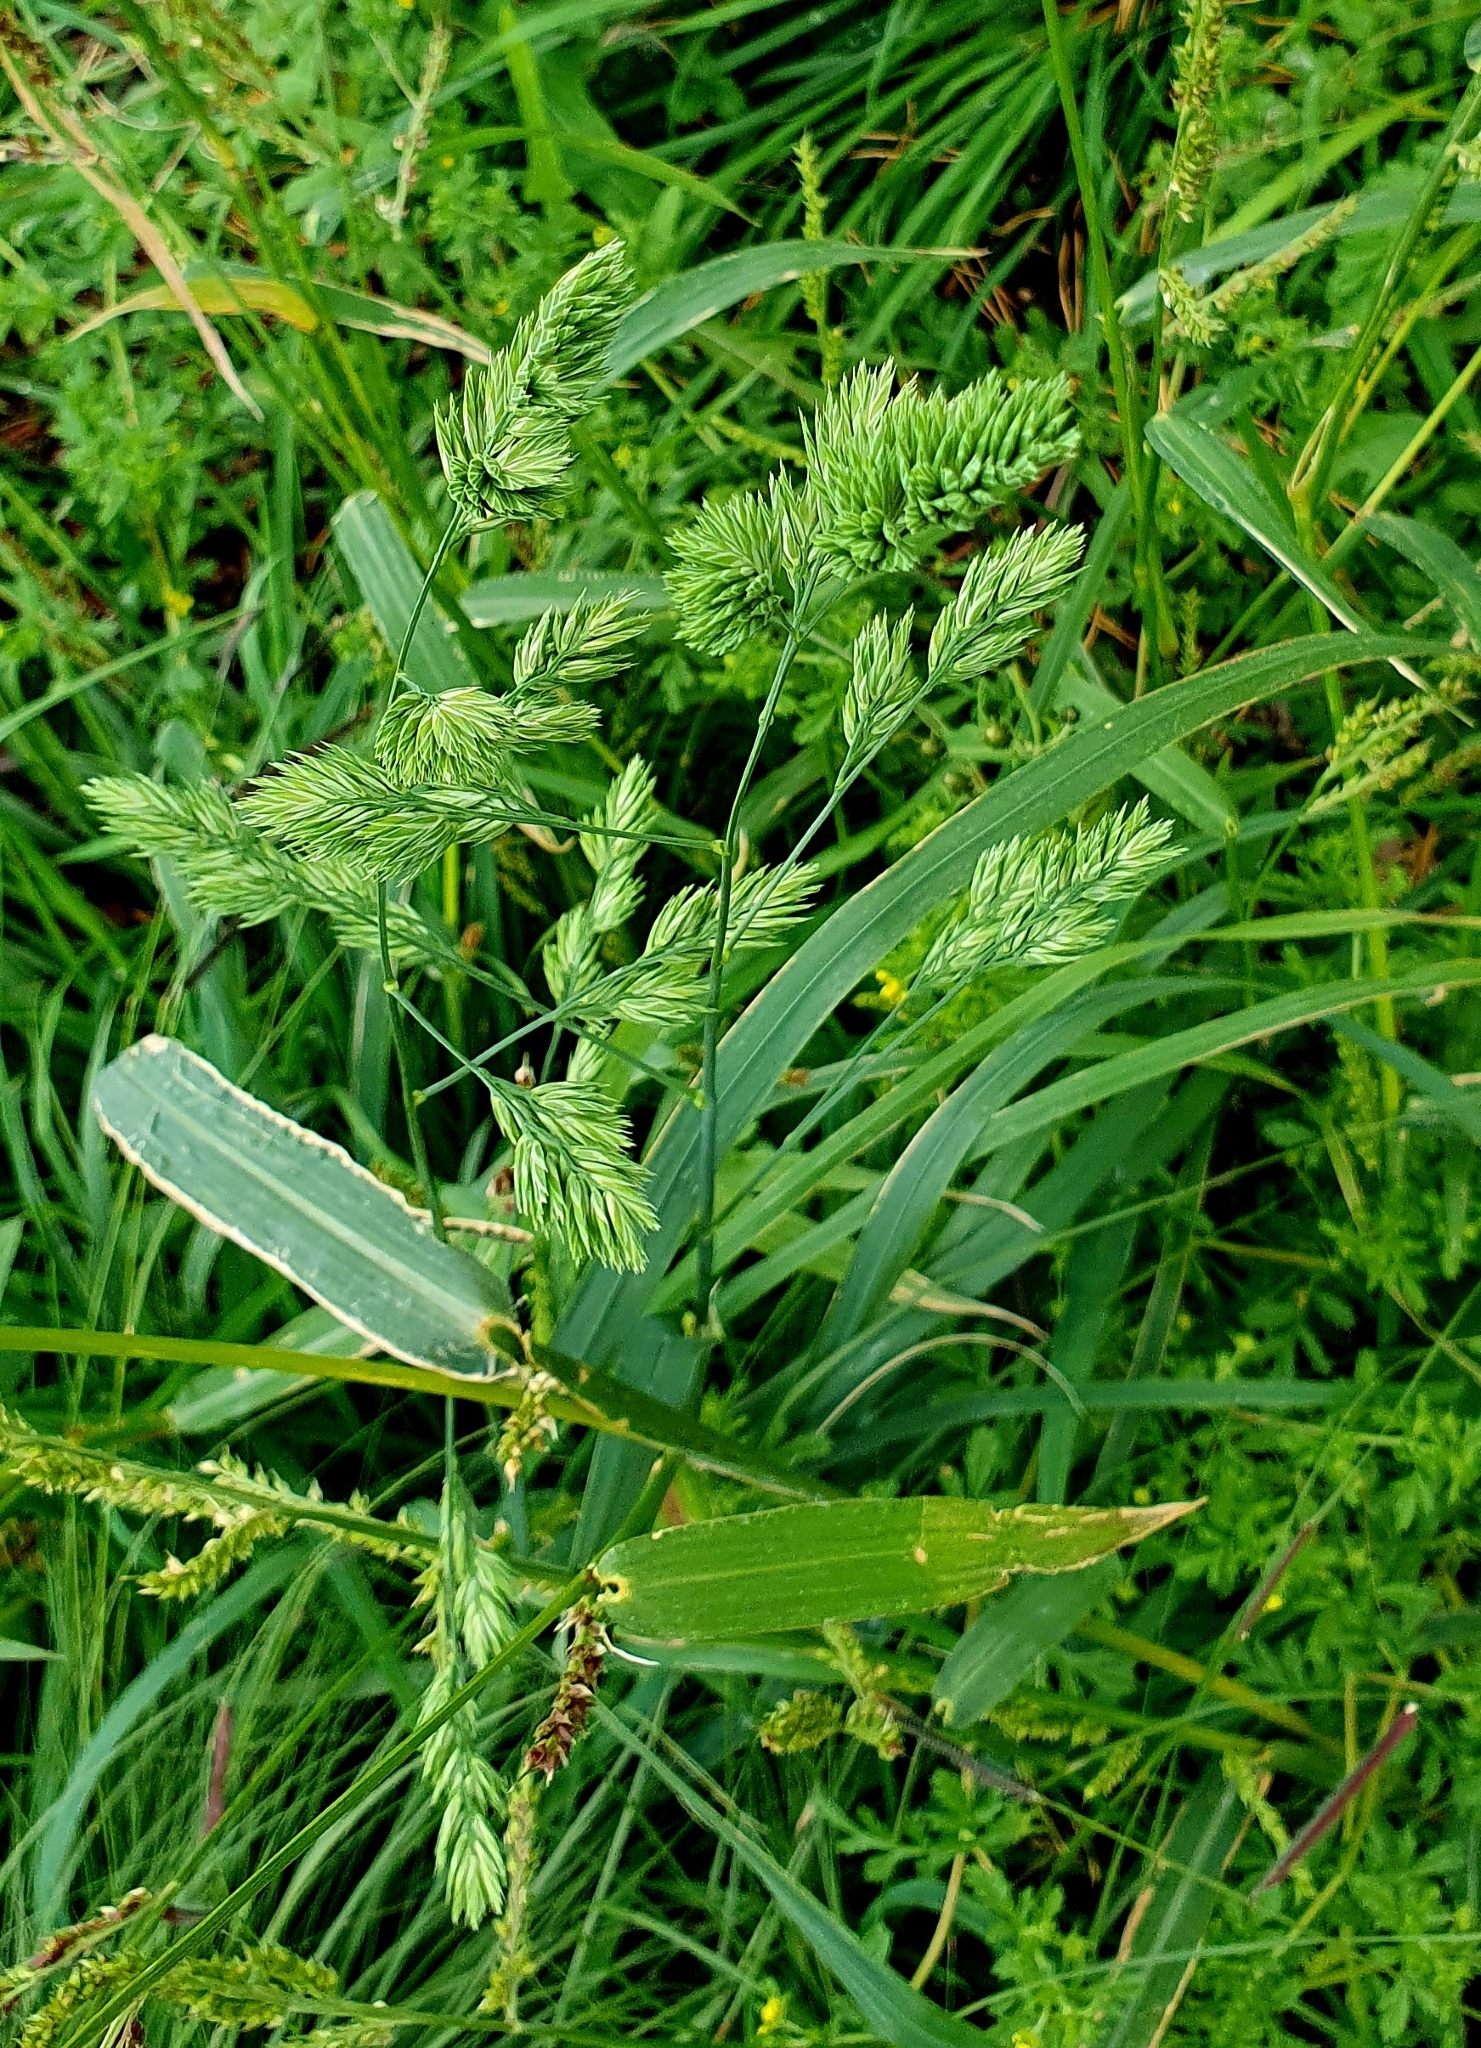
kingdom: Plantae
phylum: Tracheophyta
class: Liliopsida
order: Poales
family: Poaceae
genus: Dactylis
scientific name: Dactylis glomerata
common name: Orchardgrass
